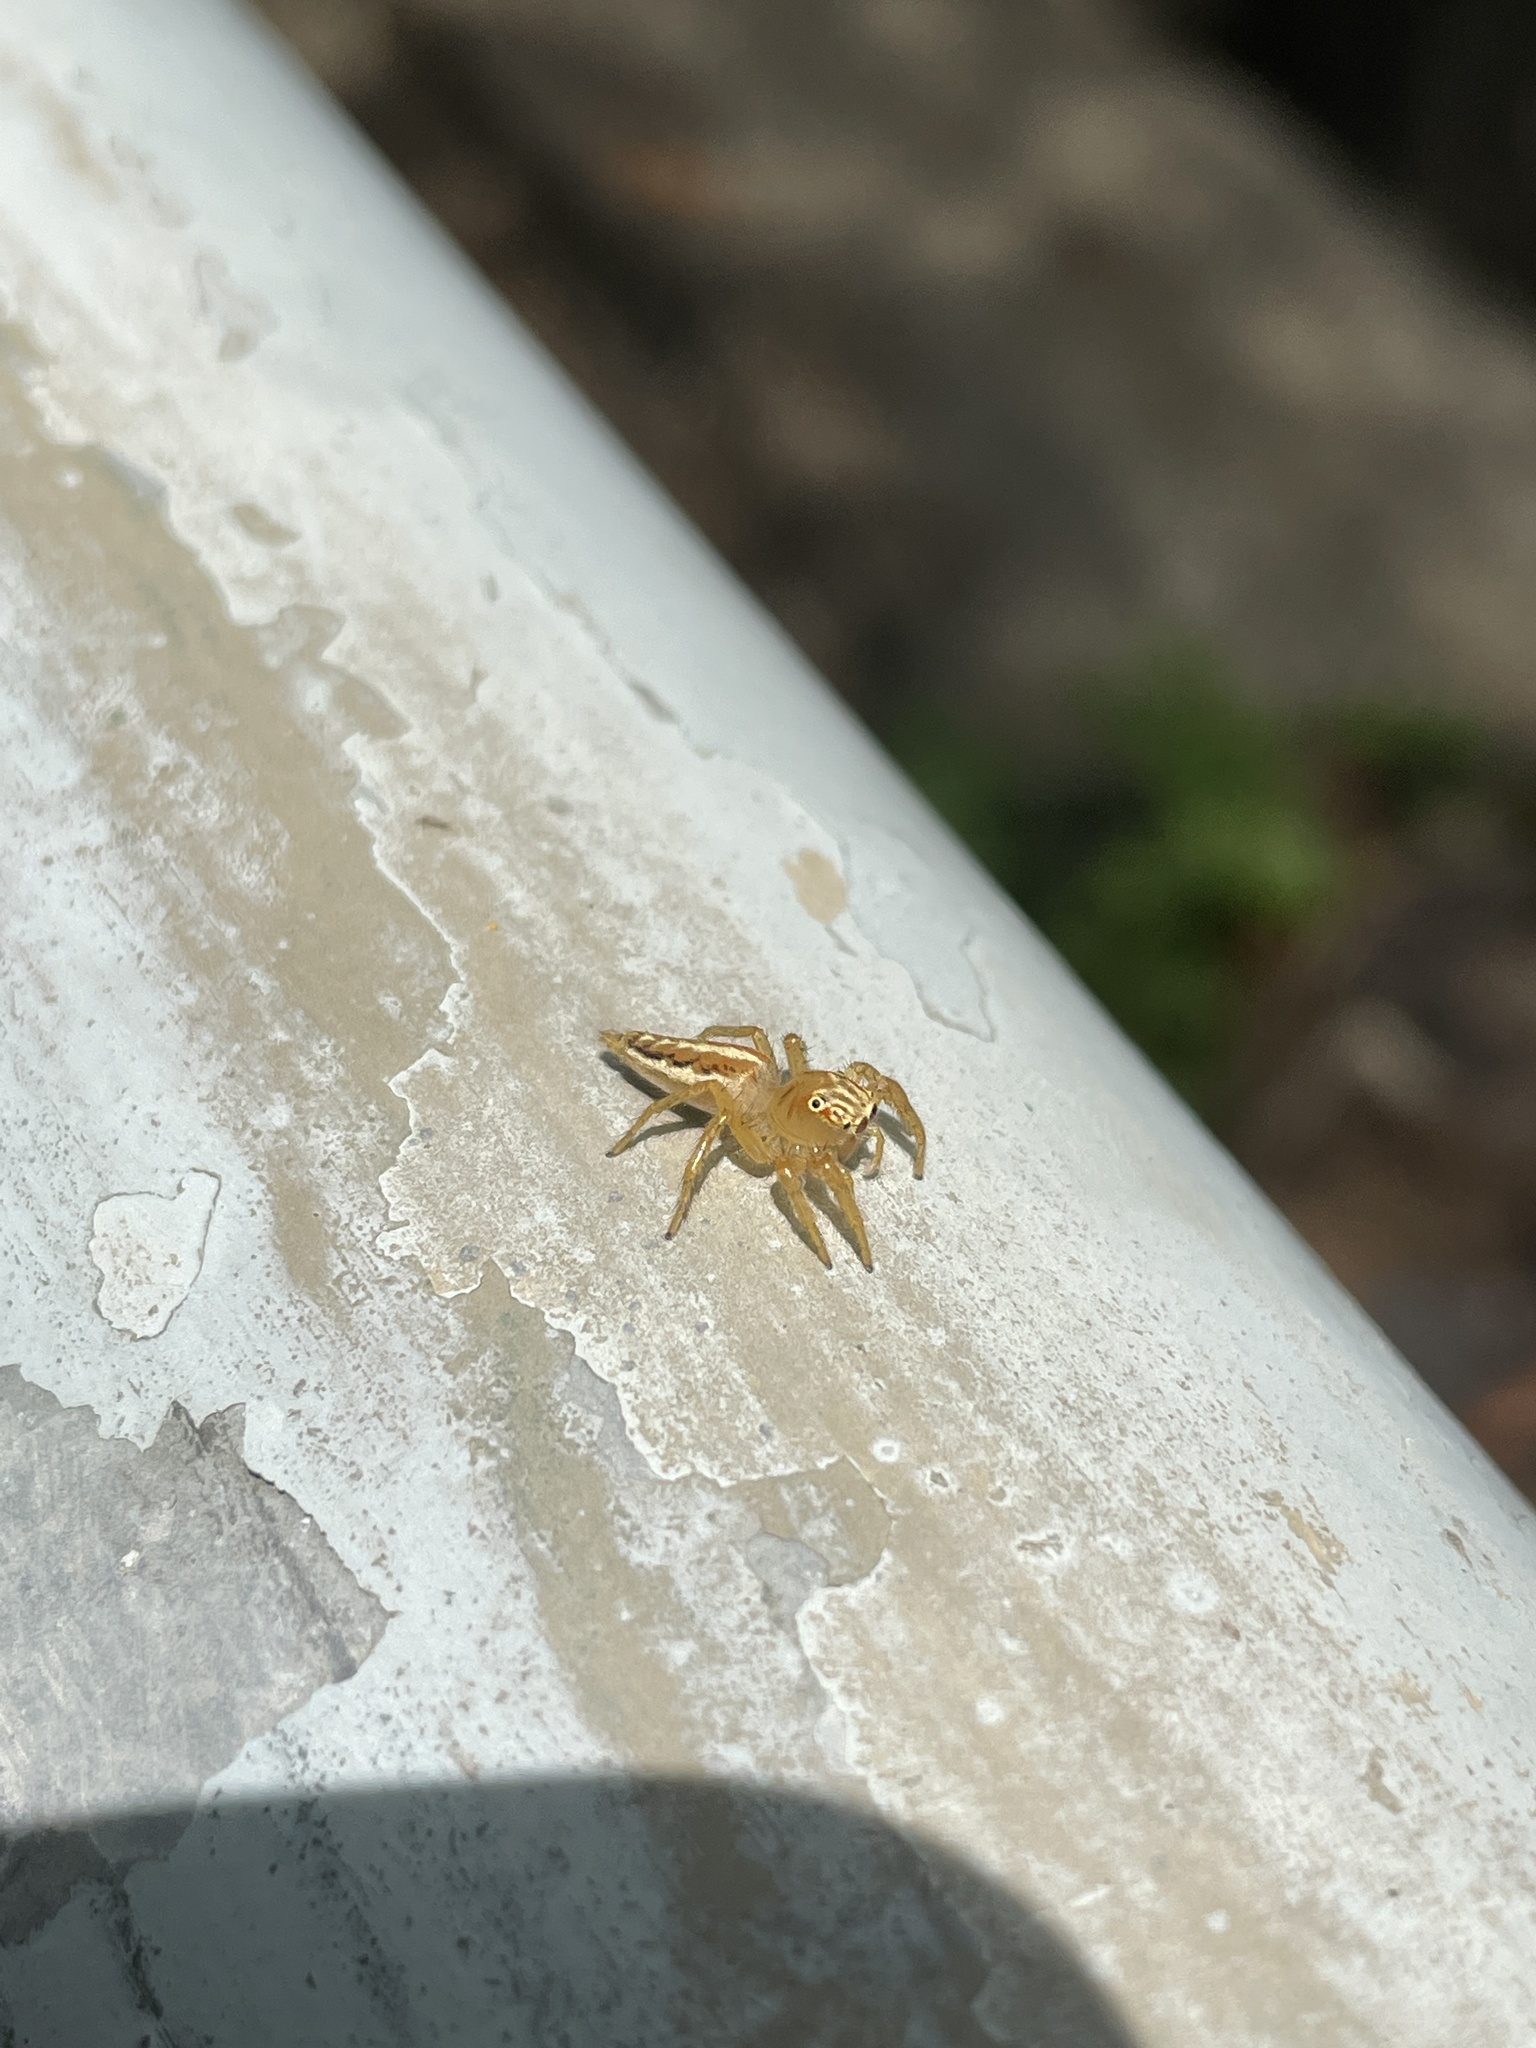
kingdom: Animalia
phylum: Arthropoda
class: Arachnida
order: Araneae
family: Salticidae
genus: Telamonia
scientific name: Telamonia caprina
